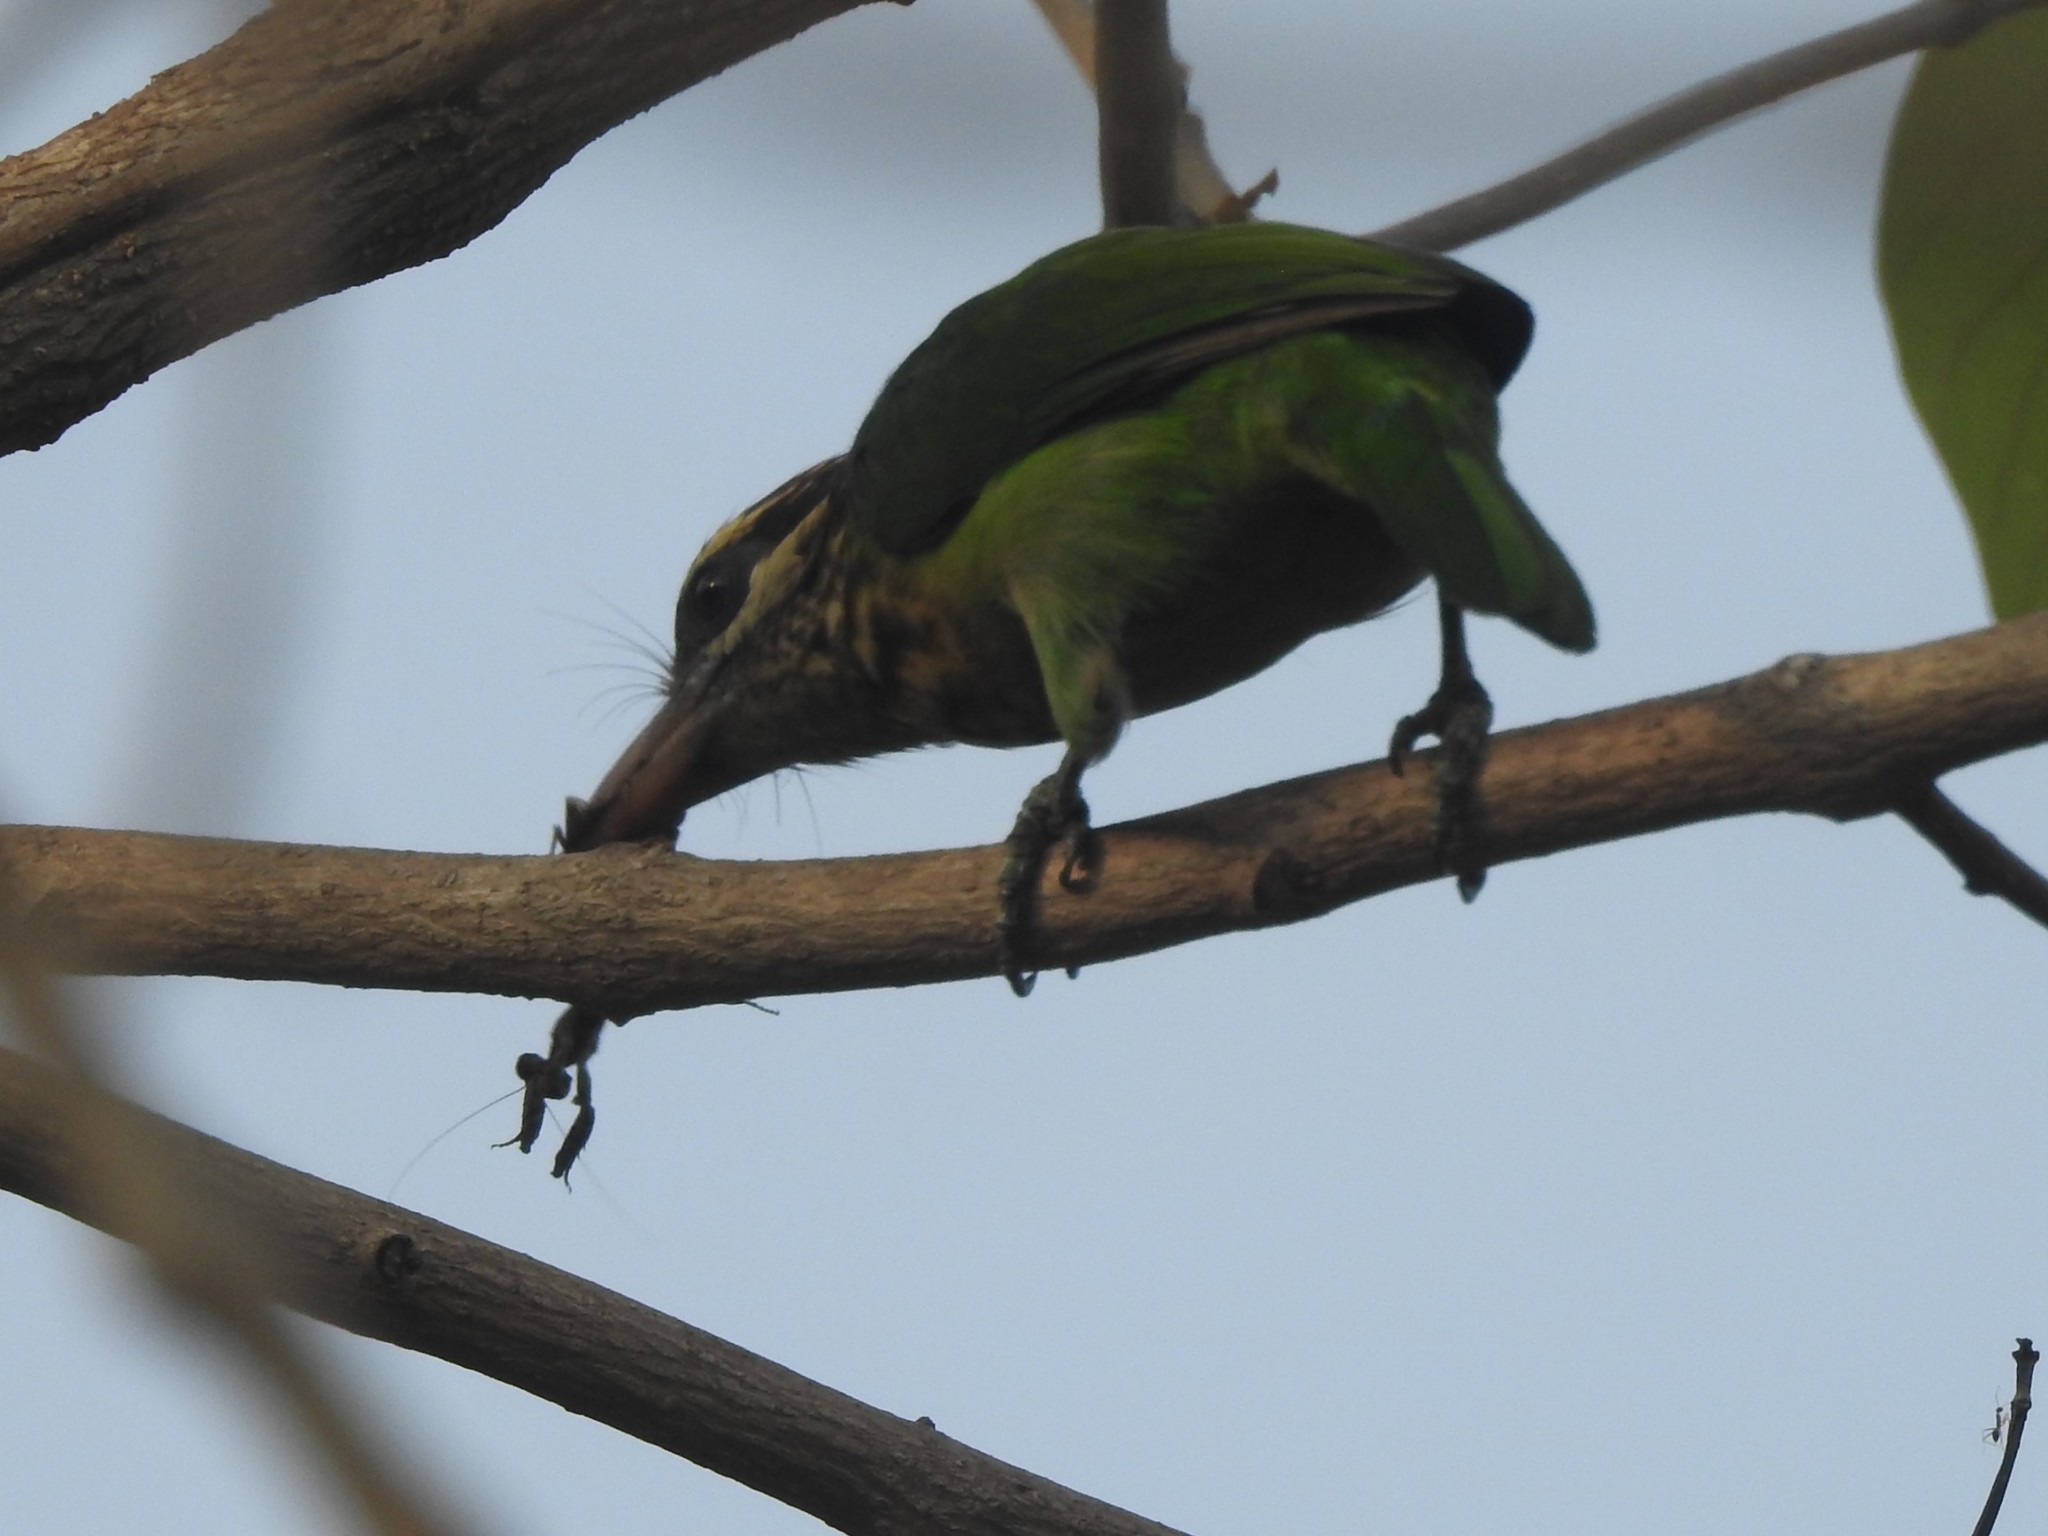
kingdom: Animalia
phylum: Chordata
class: Aves
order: Piciformes
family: Megalaimidae
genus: Psilopogon
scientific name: Psilopogon viridis
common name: White-cheeked barbet
